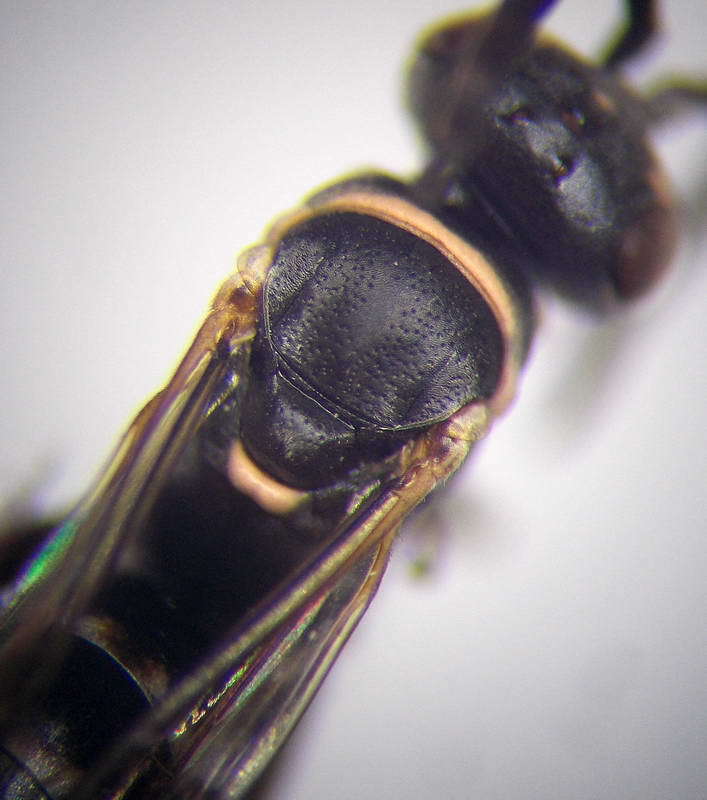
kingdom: Animalia
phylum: Arthropoda
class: Insecta
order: Hymenoptera
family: Pompilidae
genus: Ceropales
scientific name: Ceropales helvetica
